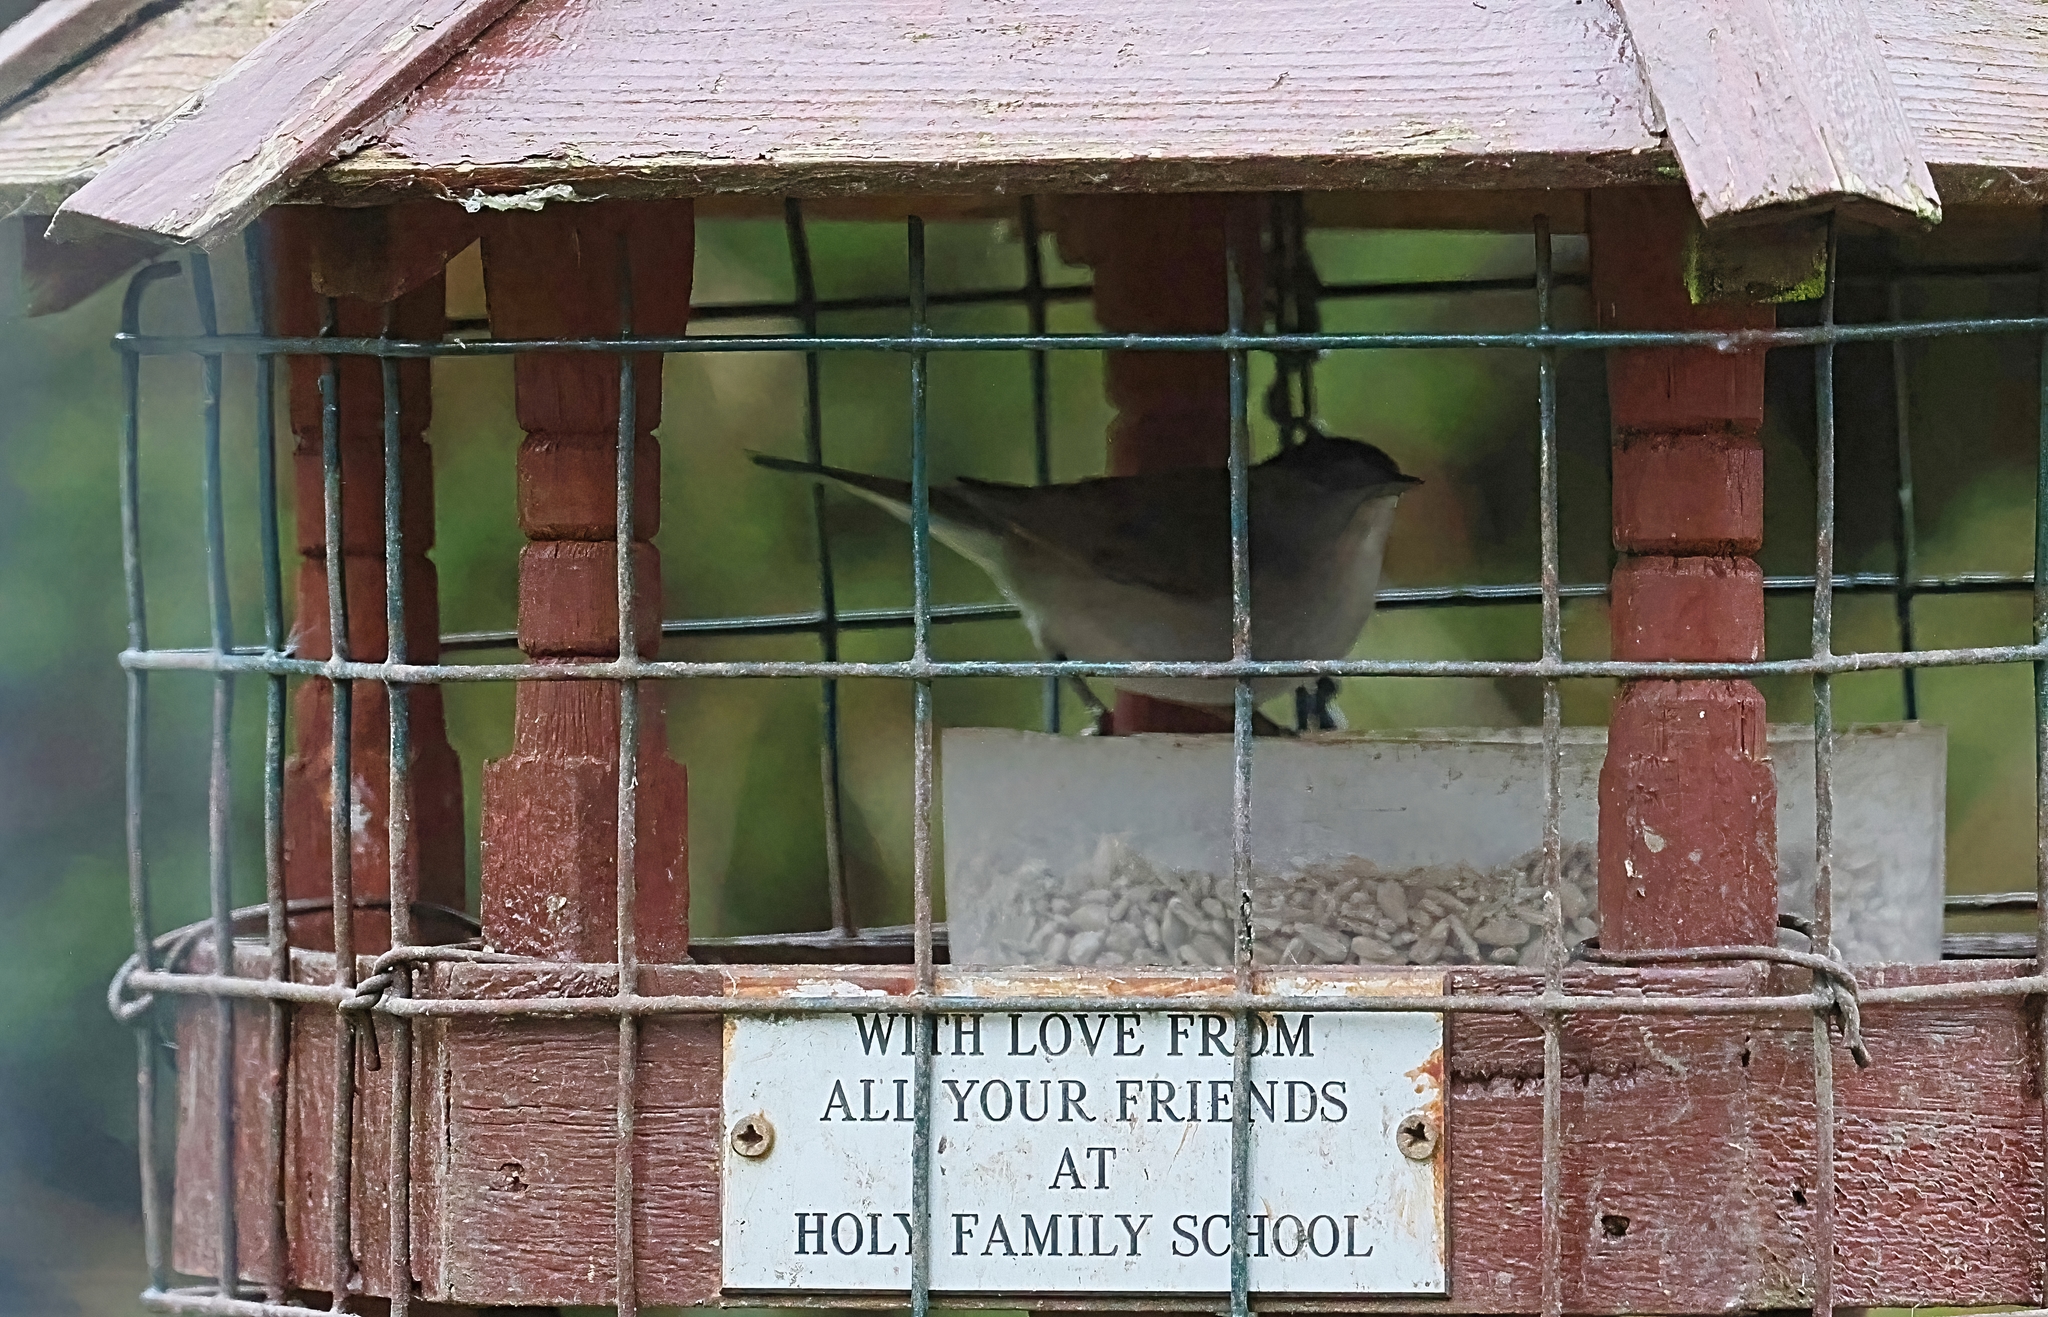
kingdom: Animalia
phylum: Chordata
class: Aves
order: Passeriformes
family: Sylviidae
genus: Sylvia
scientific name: Sylvia atricapilla
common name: Eurasian blackcap
